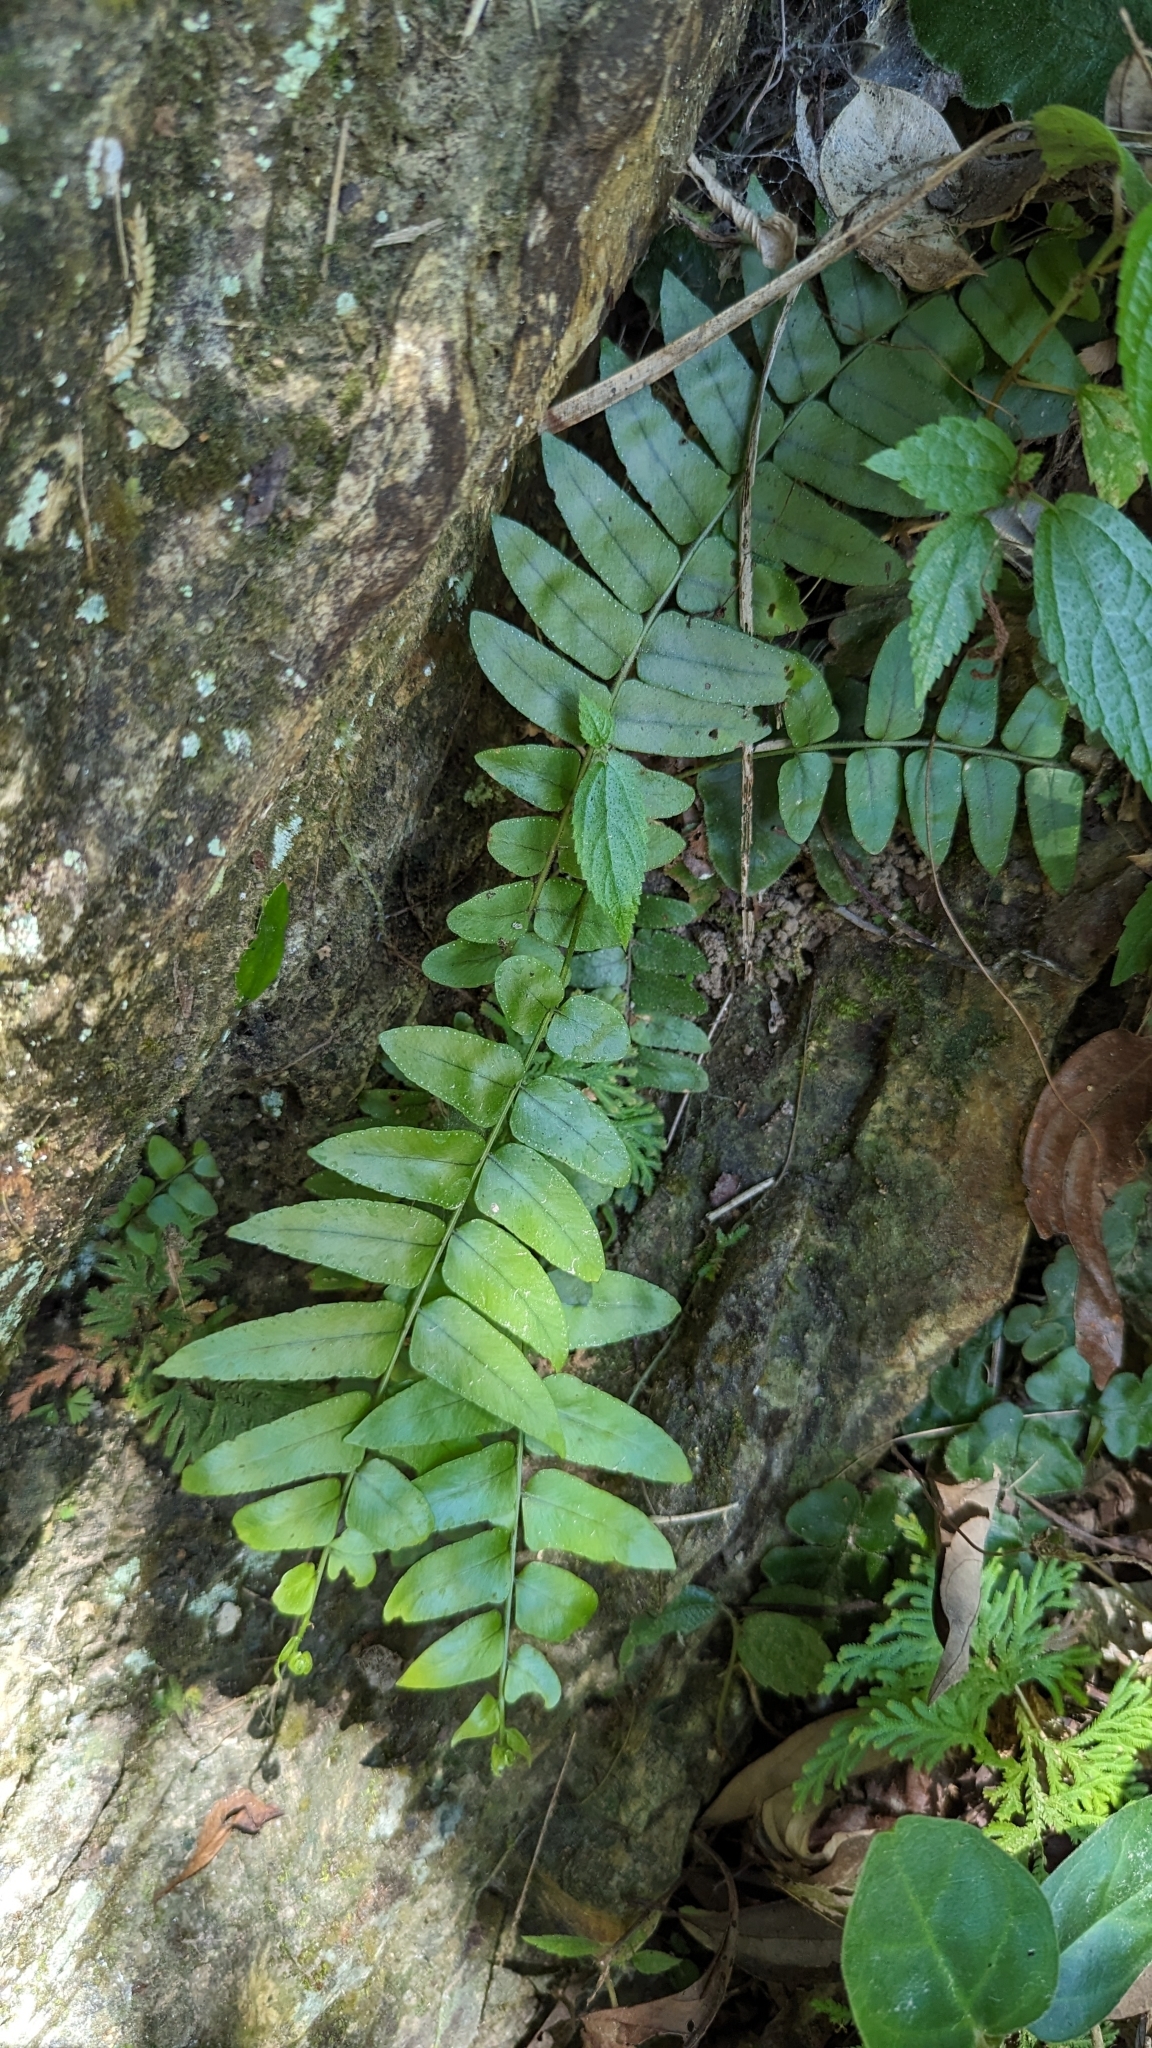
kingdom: Plantae
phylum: Tracheophyta
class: Polypodiopsida
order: Polypodiales
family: Nephrolepidaceae
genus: Nephrolepis
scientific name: Nephrolepis biserrata
